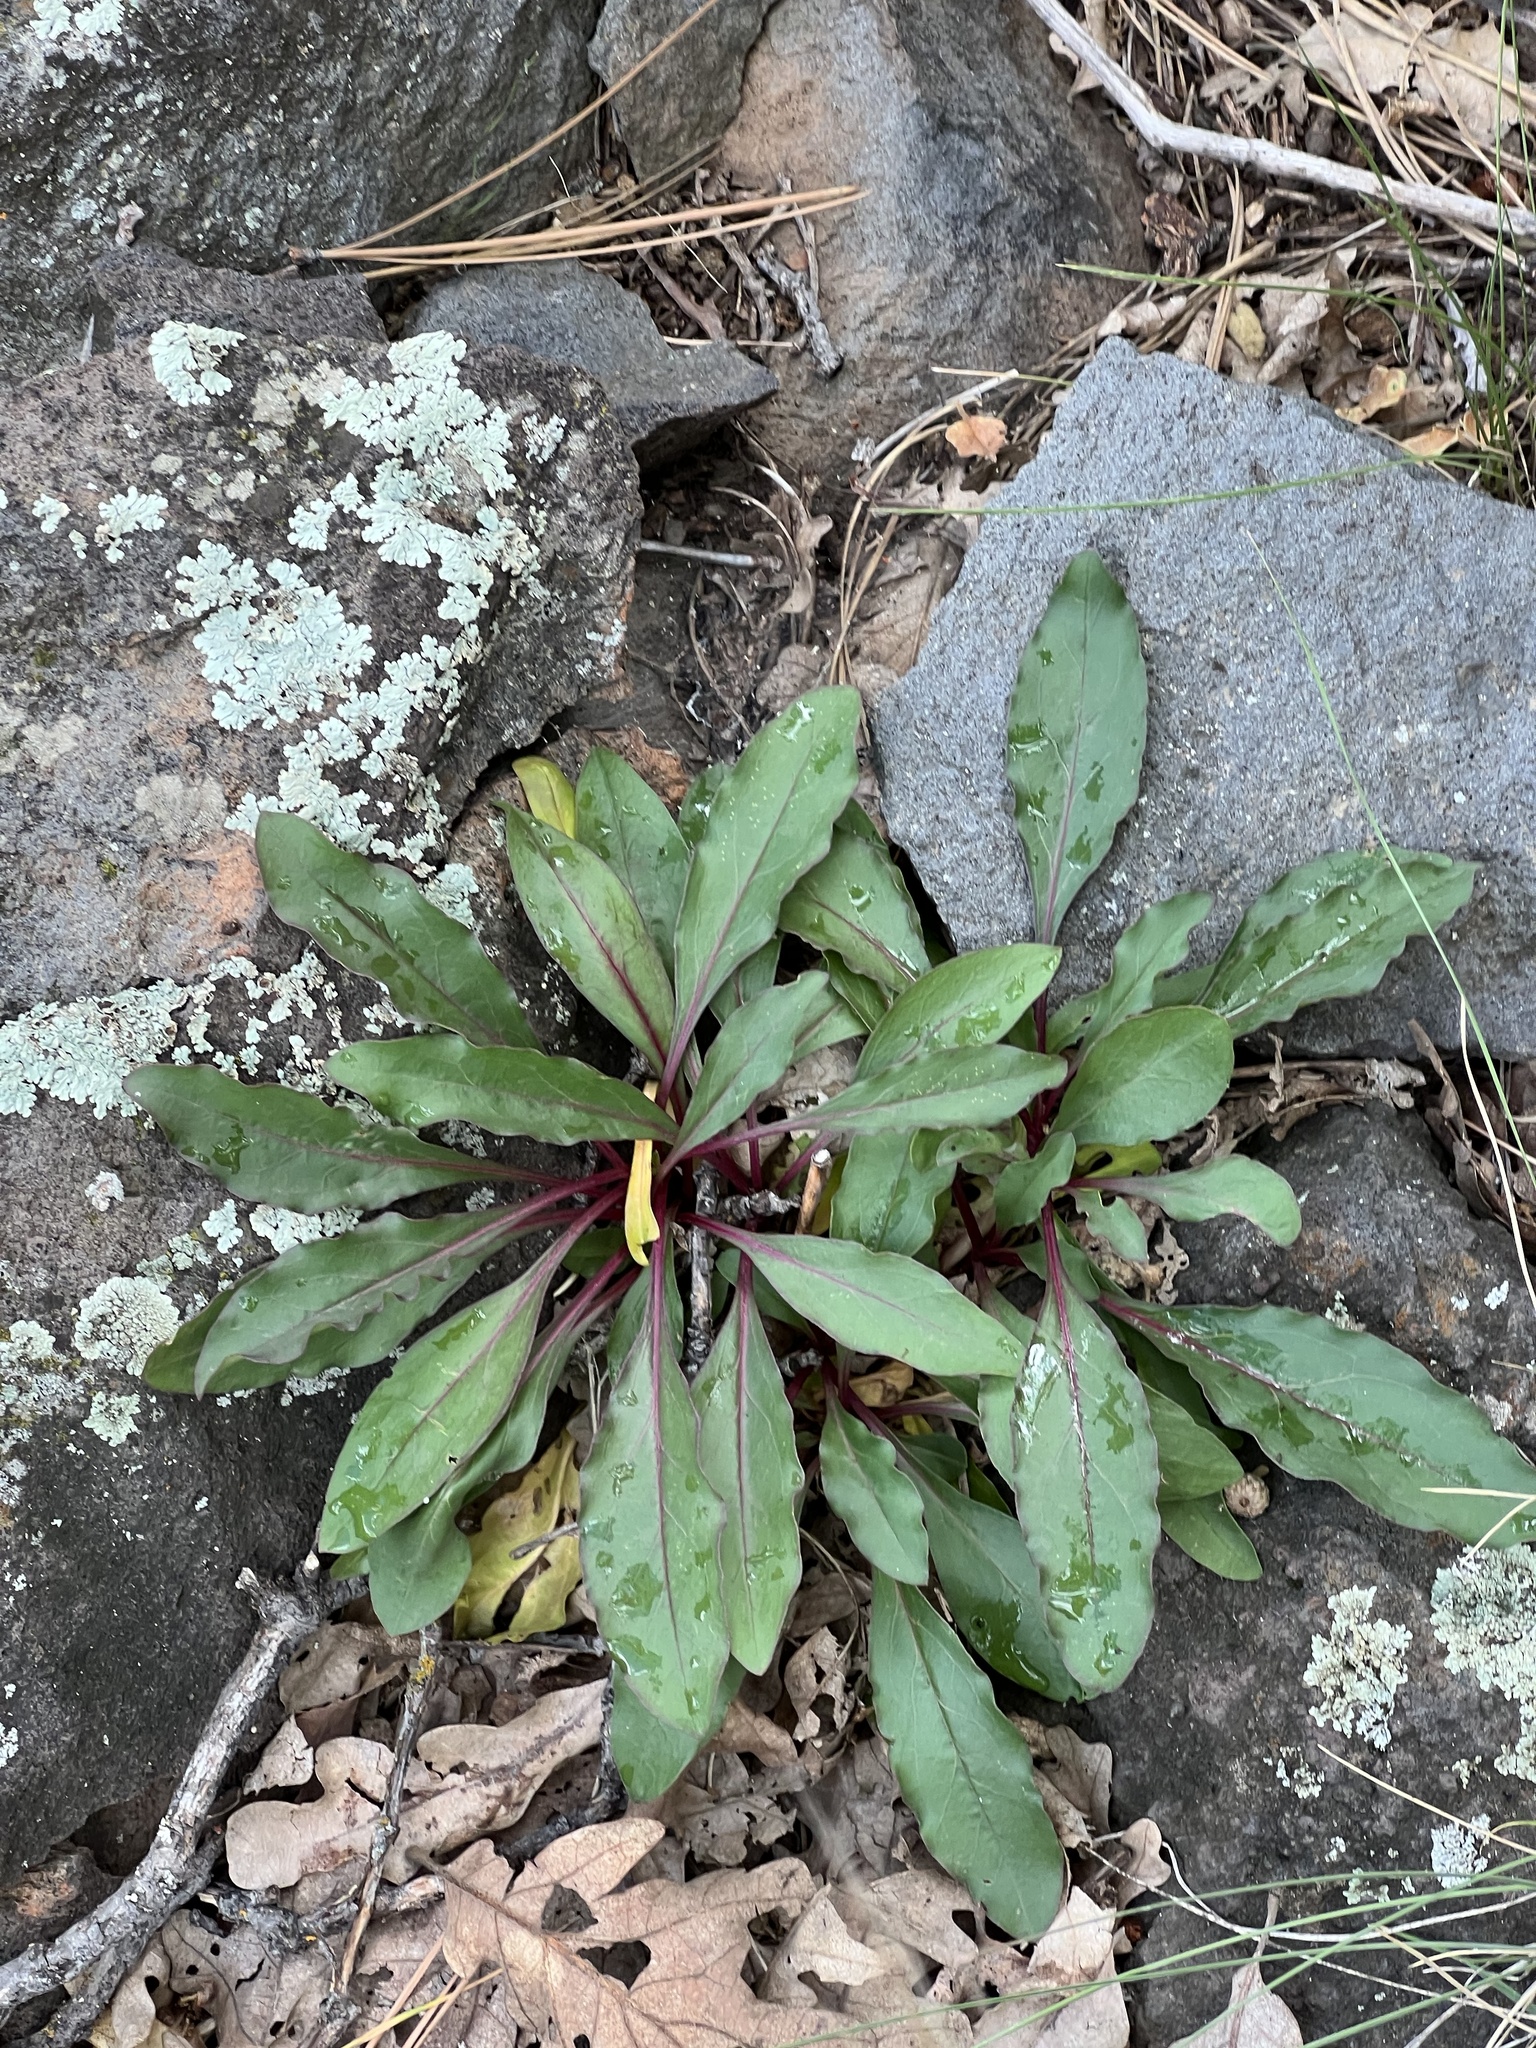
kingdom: Plantae
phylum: Tracheophyta
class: Magnoliopsida
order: Lamiales
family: Plantaginaceae
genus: Penstemon
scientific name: Penstemon barbatus
